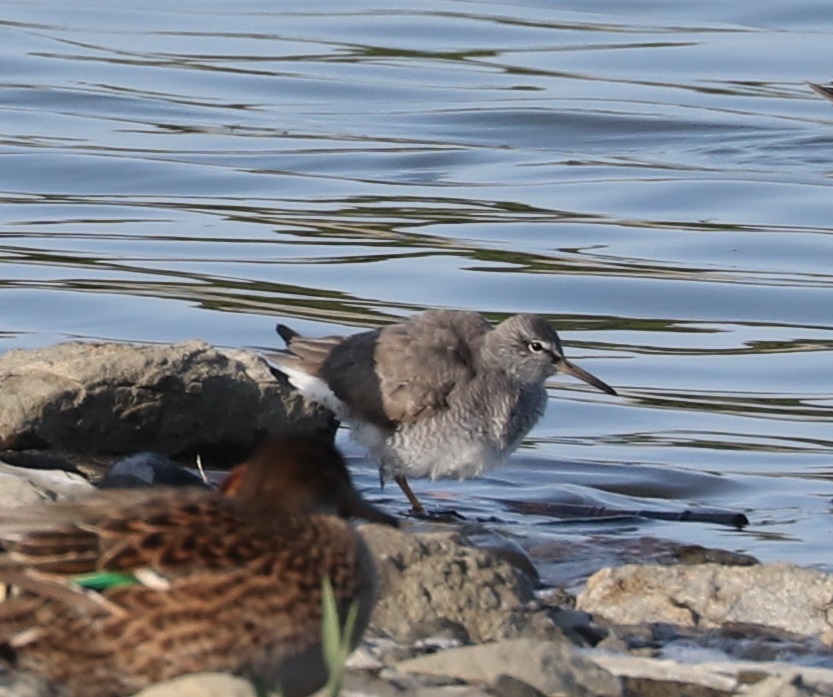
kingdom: Animalia
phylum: Chordata
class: Aves
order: Charadriiformes
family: Scolopacidae
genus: Tringa
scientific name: Tringa brevipes
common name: Grey-tailed tattler
